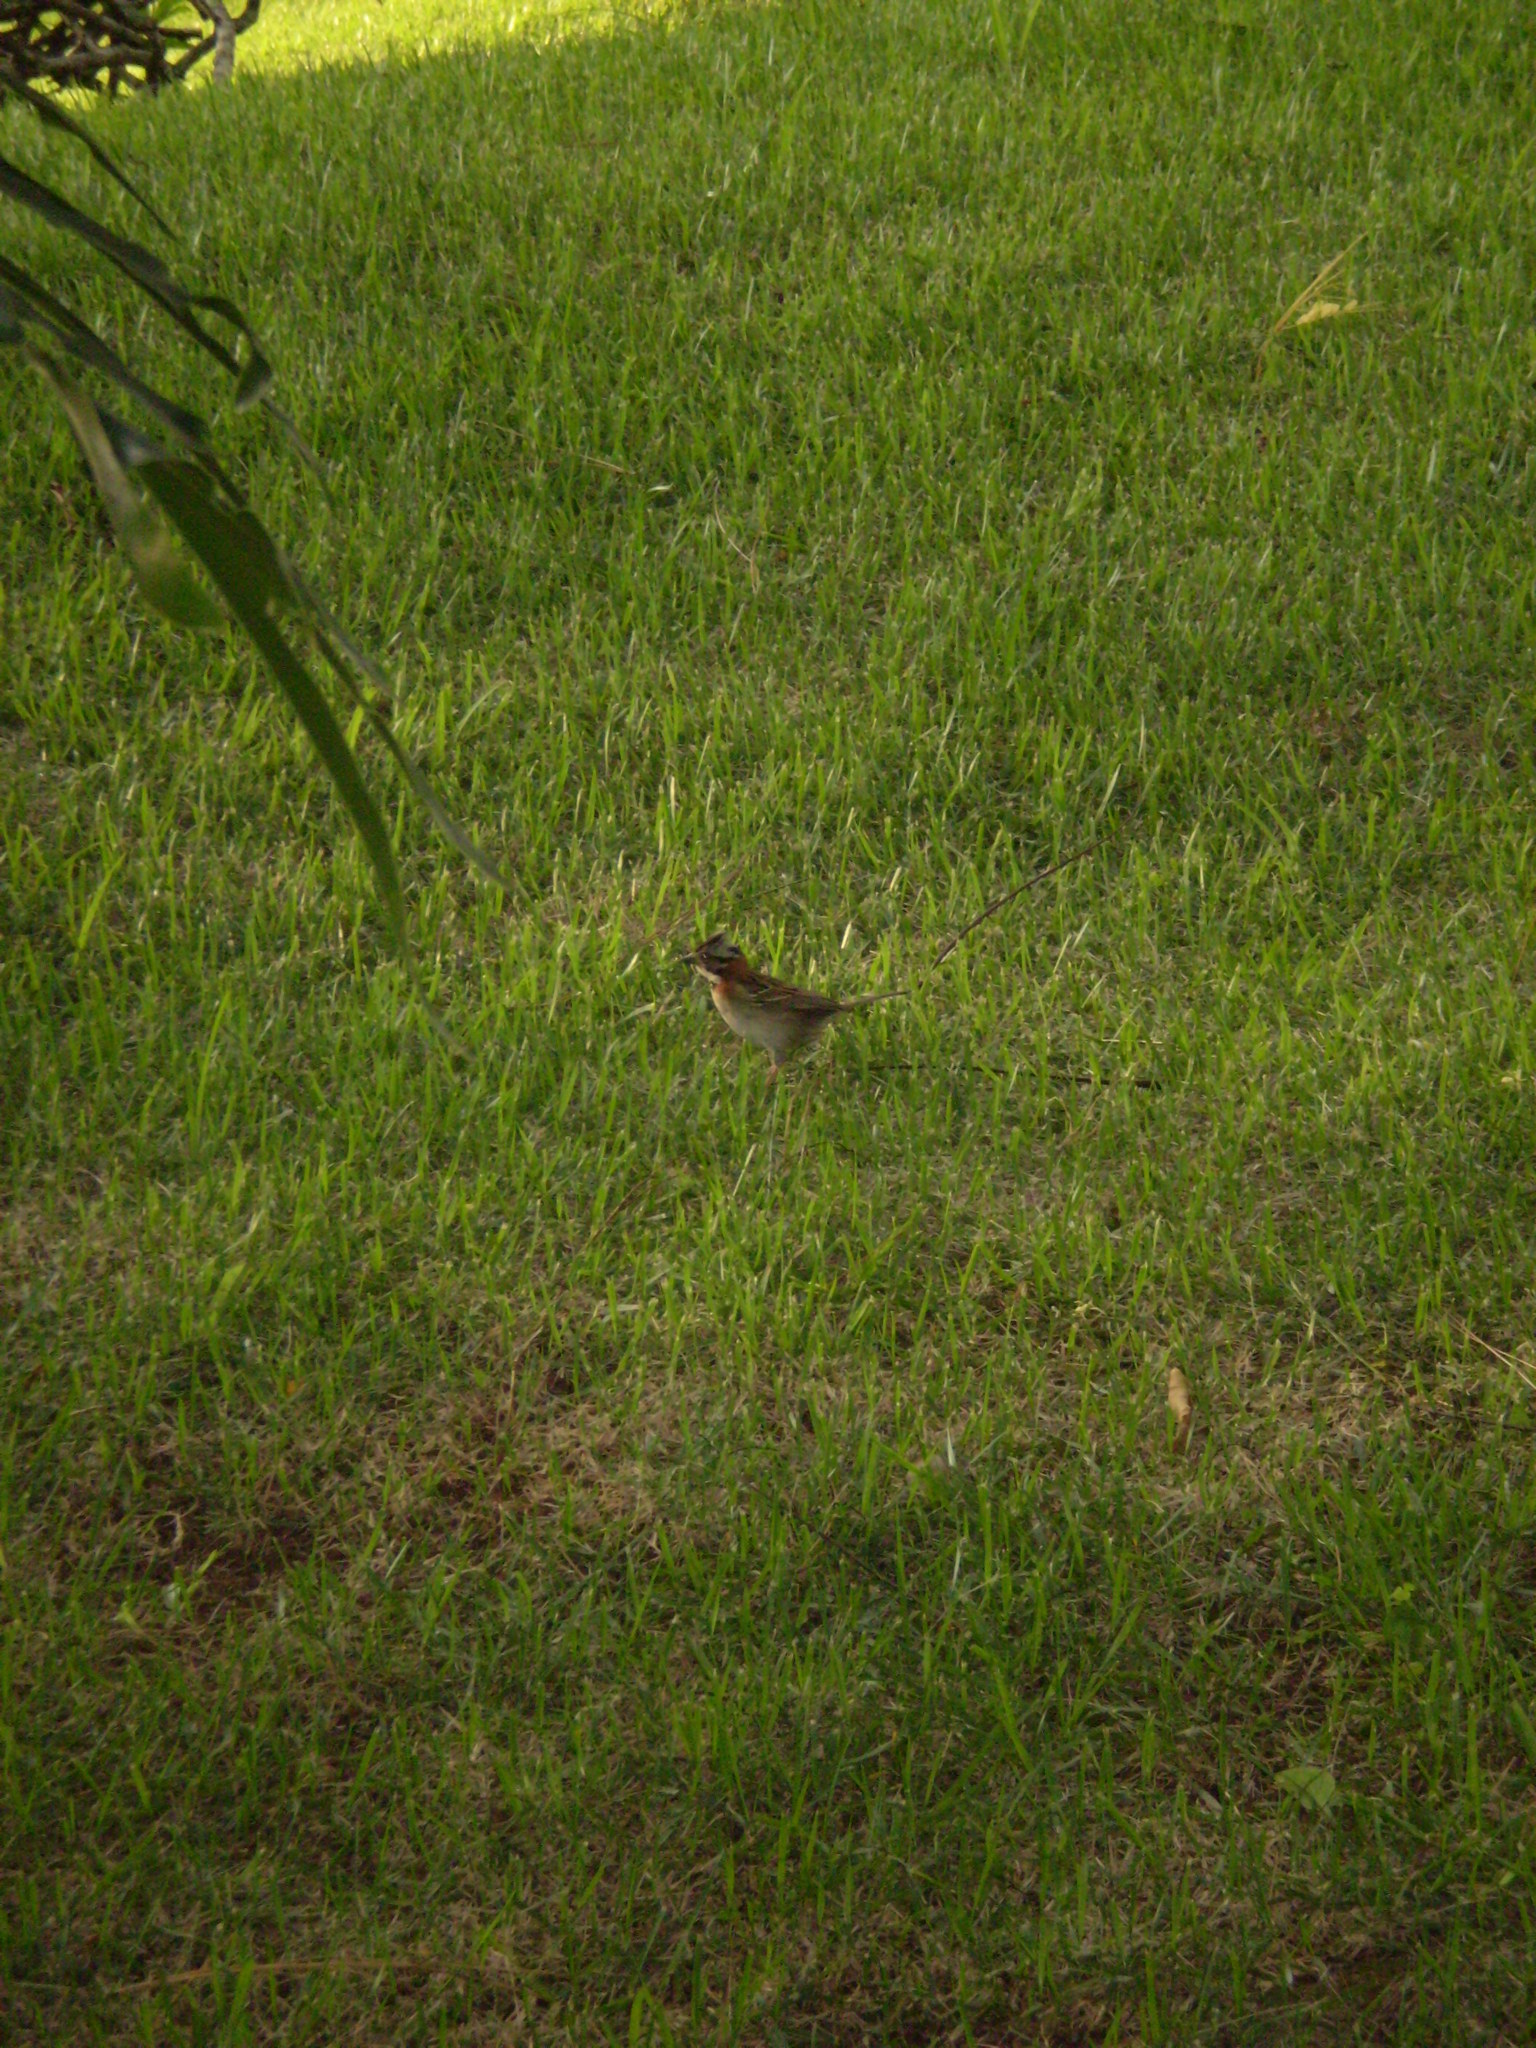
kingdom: Animalia
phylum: Chordata
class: Aves
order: Passeriformes
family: Passerellidae
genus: Zonotrichia
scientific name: Zonotrichia capensis
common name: Rufous-collared sparrow
